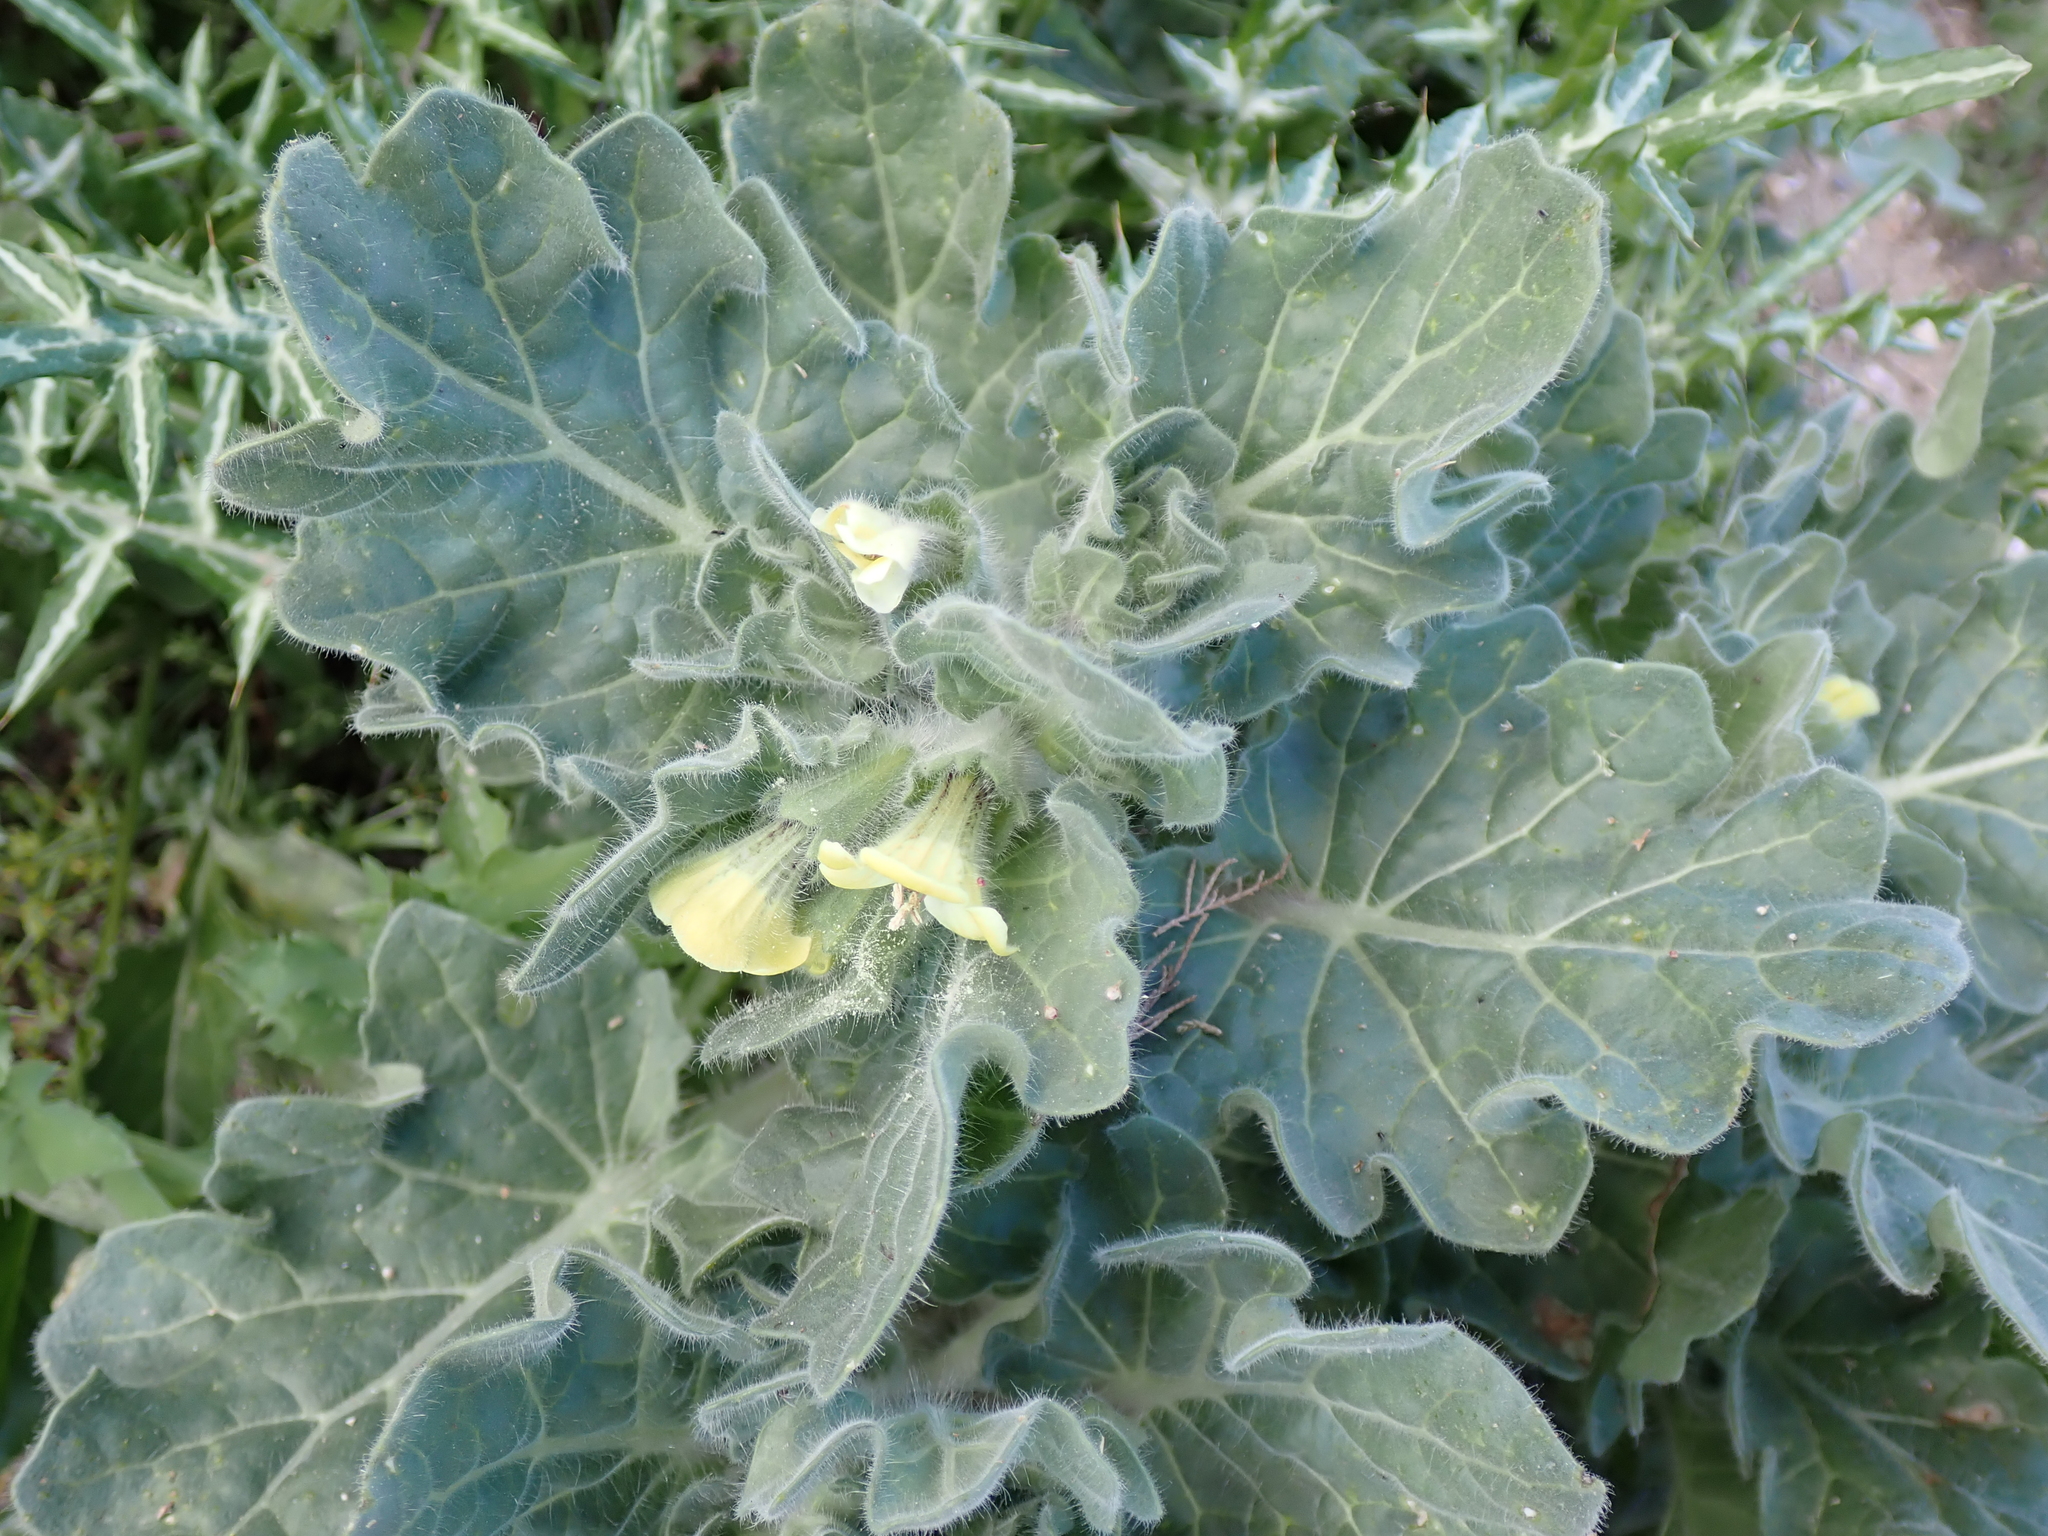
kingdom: Plantae
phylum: Tracheophyta
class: Magnoliopsida
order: Solanales
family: Solanaceae
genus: Hyoscyamus
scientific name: Hyoscyamus albus
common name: White henbane
